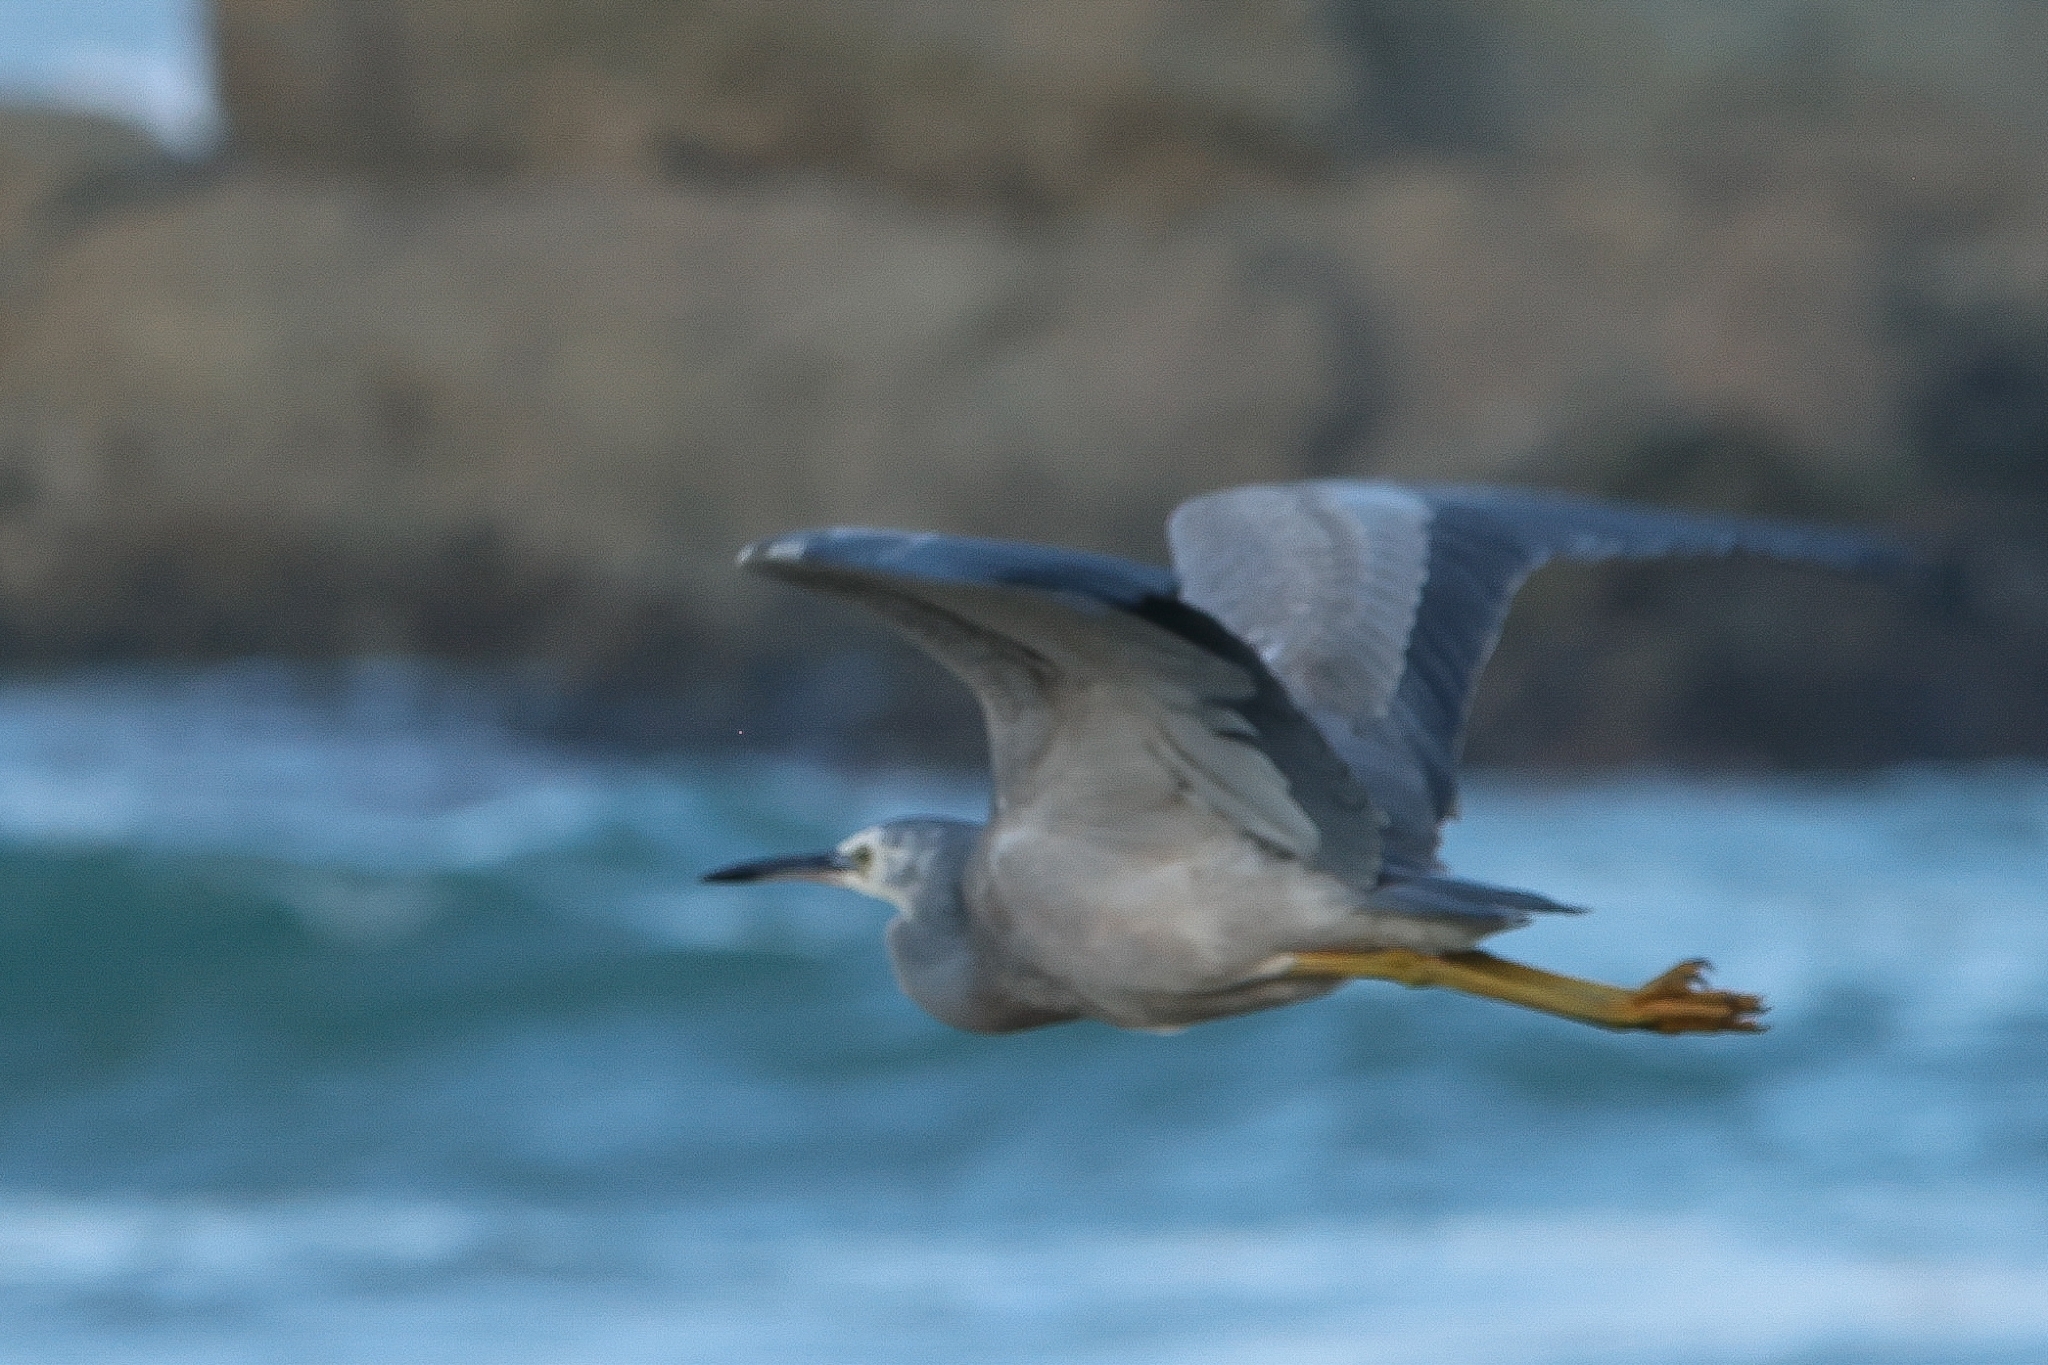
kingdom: Animalia
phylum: Chordata
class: Aves
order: Pelecaniformes
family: Ardeidae
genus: Egretta
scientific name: Egretta novaehollandiae
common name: White-faced heron
